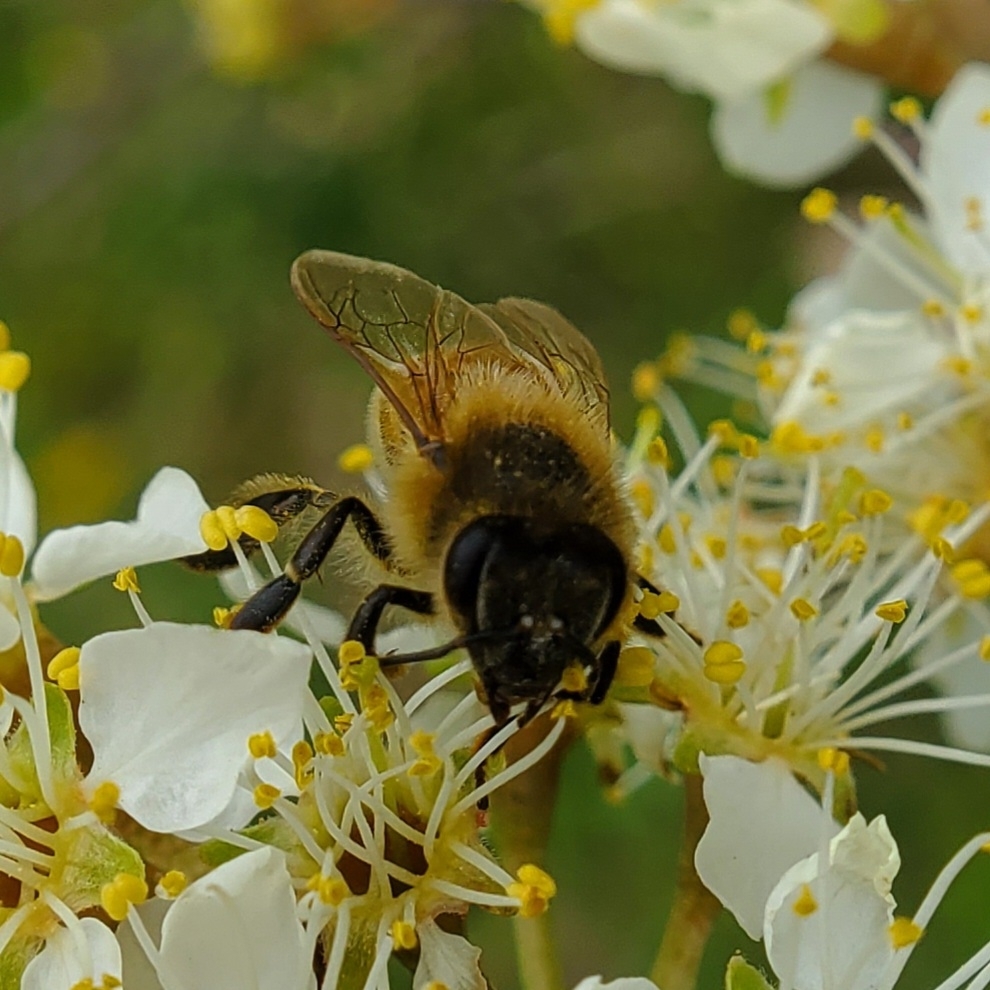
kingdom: Animalia
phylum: Arthropoda
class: Insecta
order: Hymenoptera
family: Apidae
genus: Apis
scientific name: Apis mellifera
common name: Honey bee
